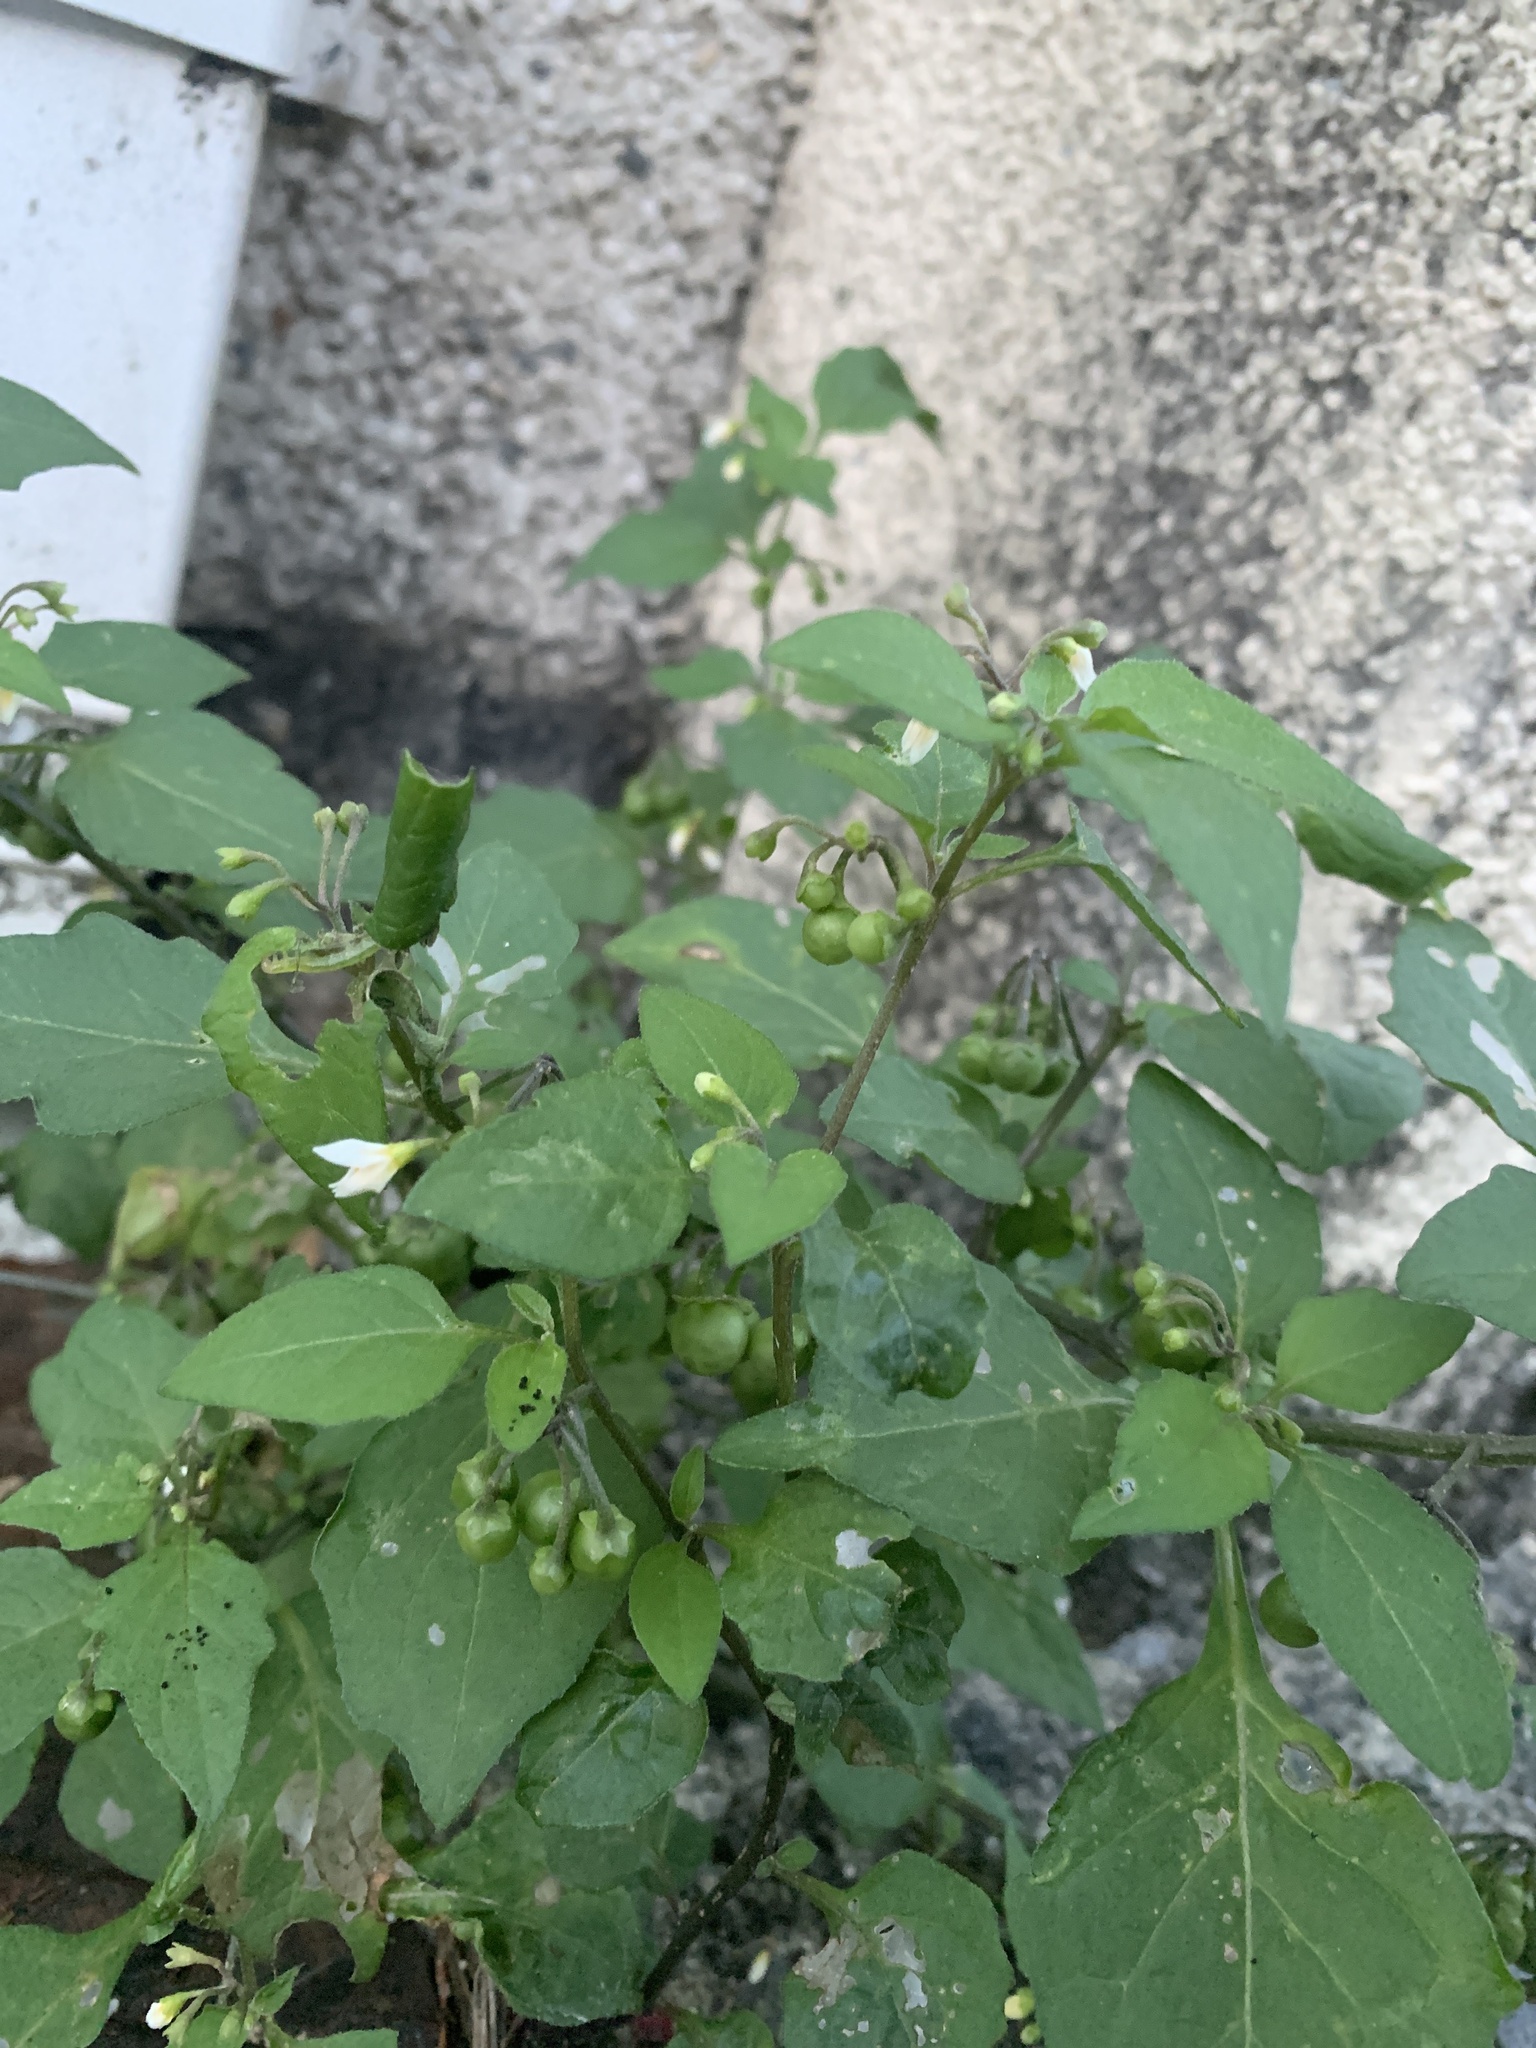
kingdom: Plantae
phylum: Tracheophyta
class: Magnoliopsida
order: Solanales
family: Solanaceae
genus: Solanum
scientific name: Solanum nigrum
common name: Black nightshade
